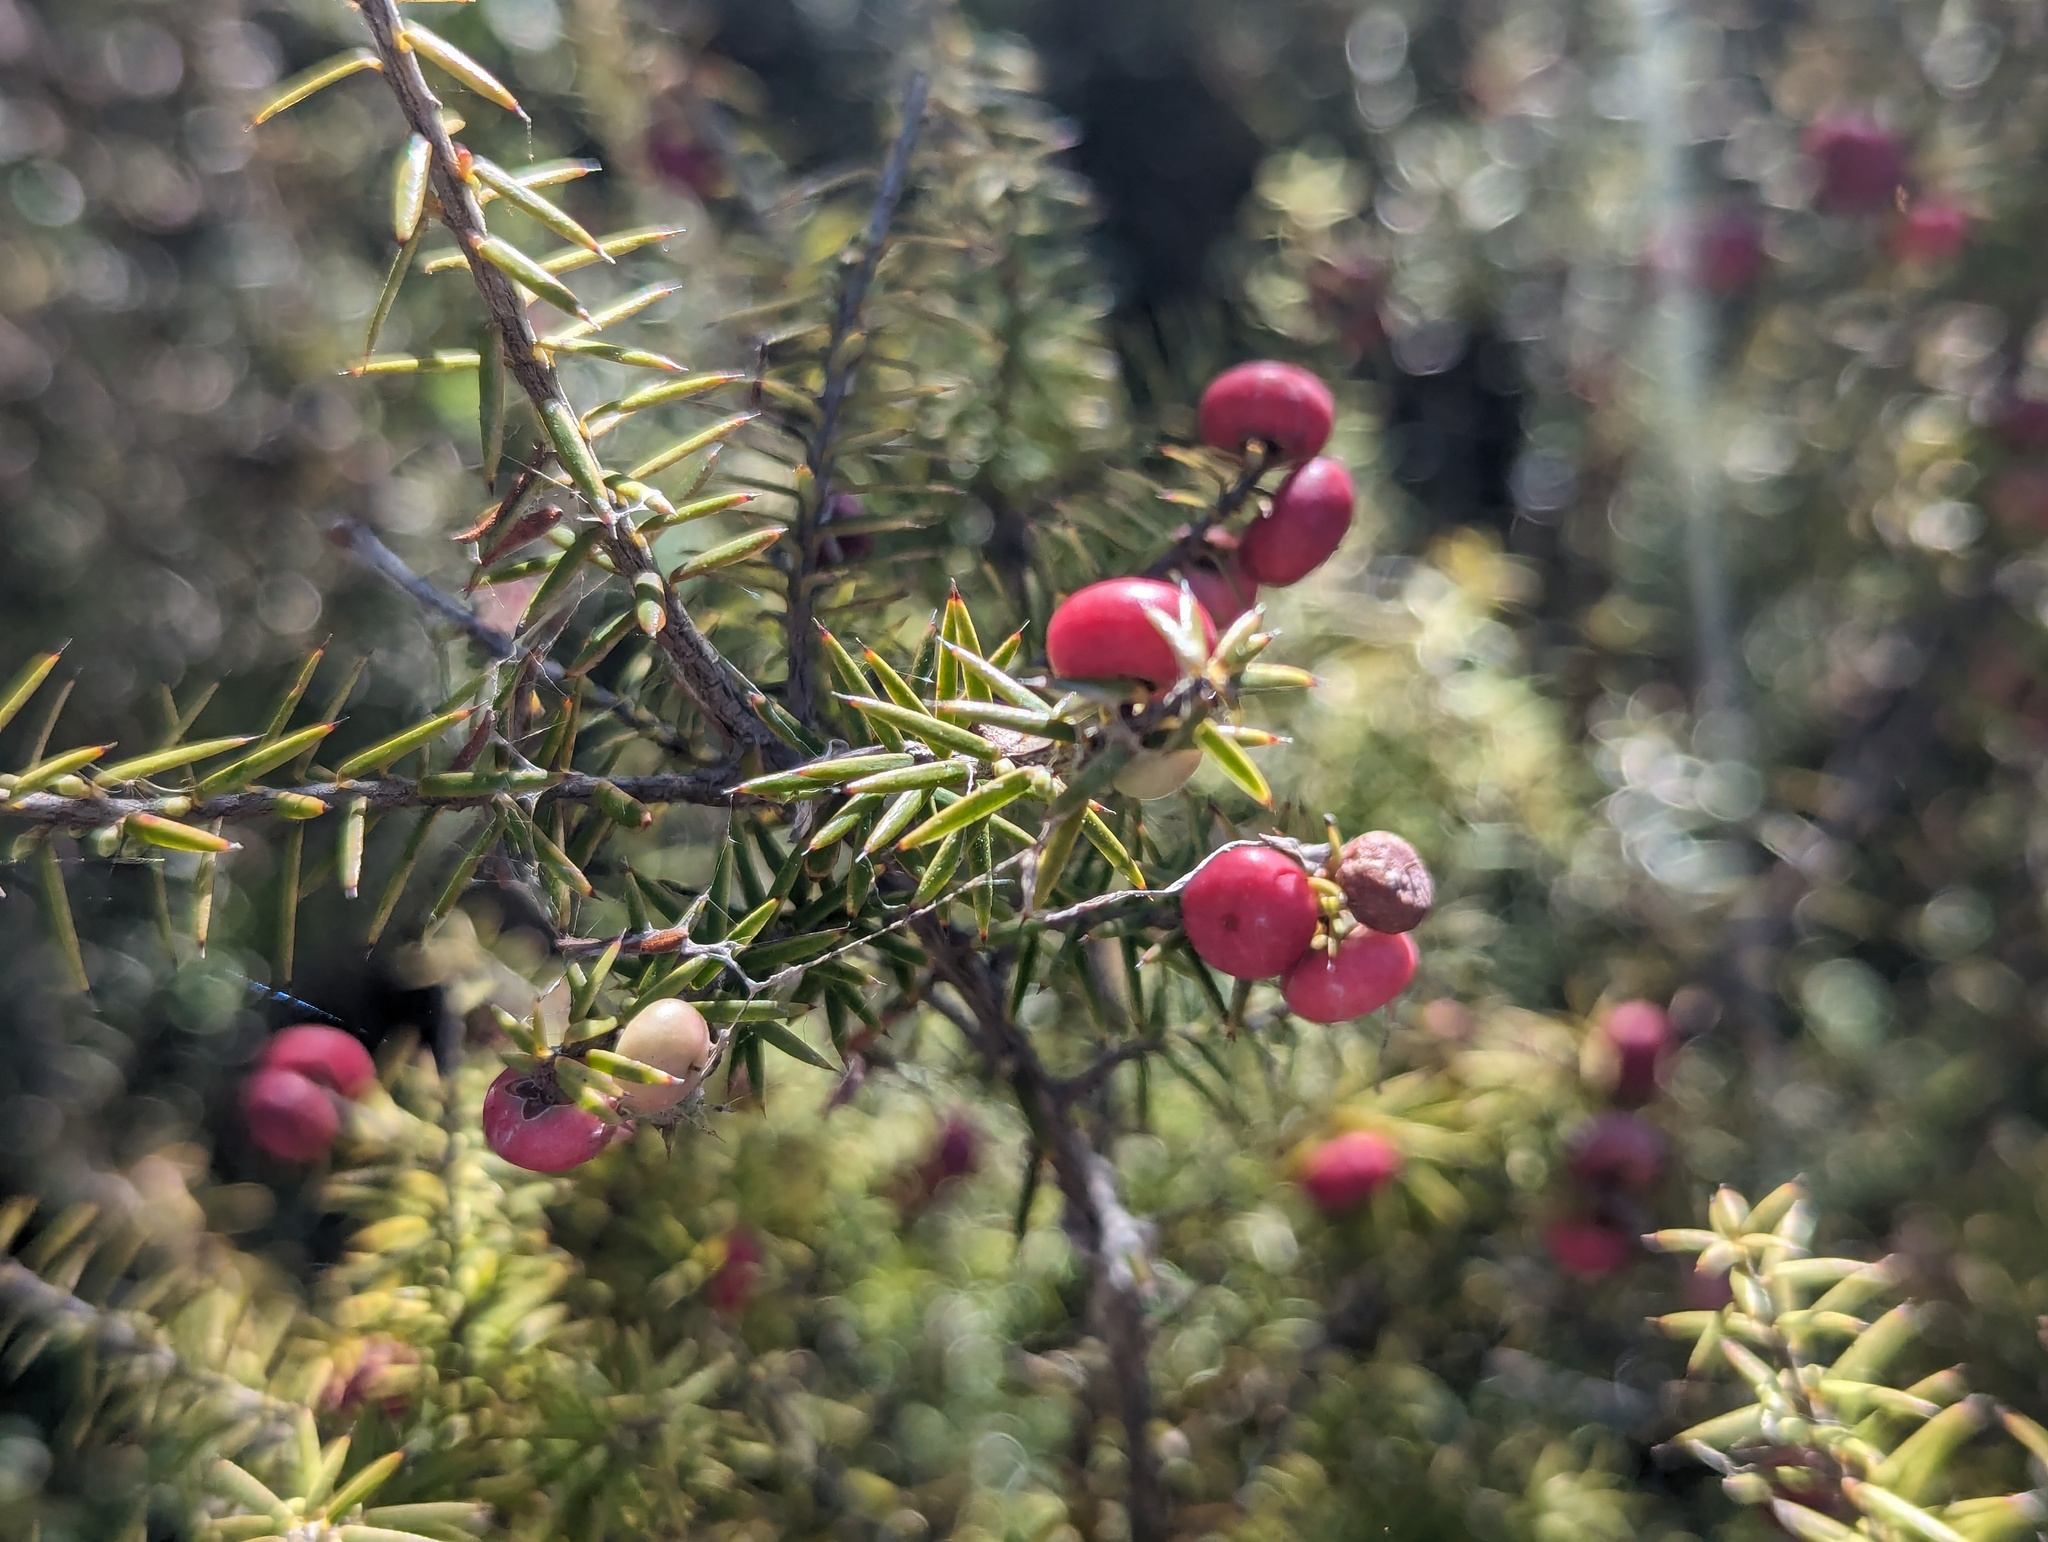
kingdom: Plantae
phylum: Tracheophyta
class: Magnoliopsida
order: Ericales
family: Ericaceae
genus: Leptecophylla
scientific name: Leptecophylla juniperina
